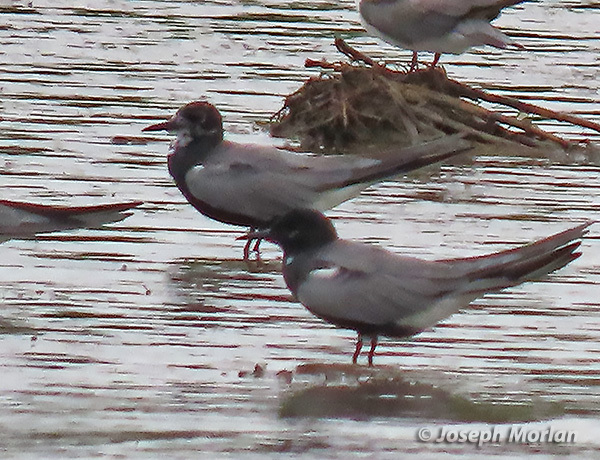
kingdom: Animalia
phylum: Chordata
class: Aves
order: Charadriiformes
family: Laridae
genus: Chlidonias
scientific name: Chlidonias niger
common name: Black tern
